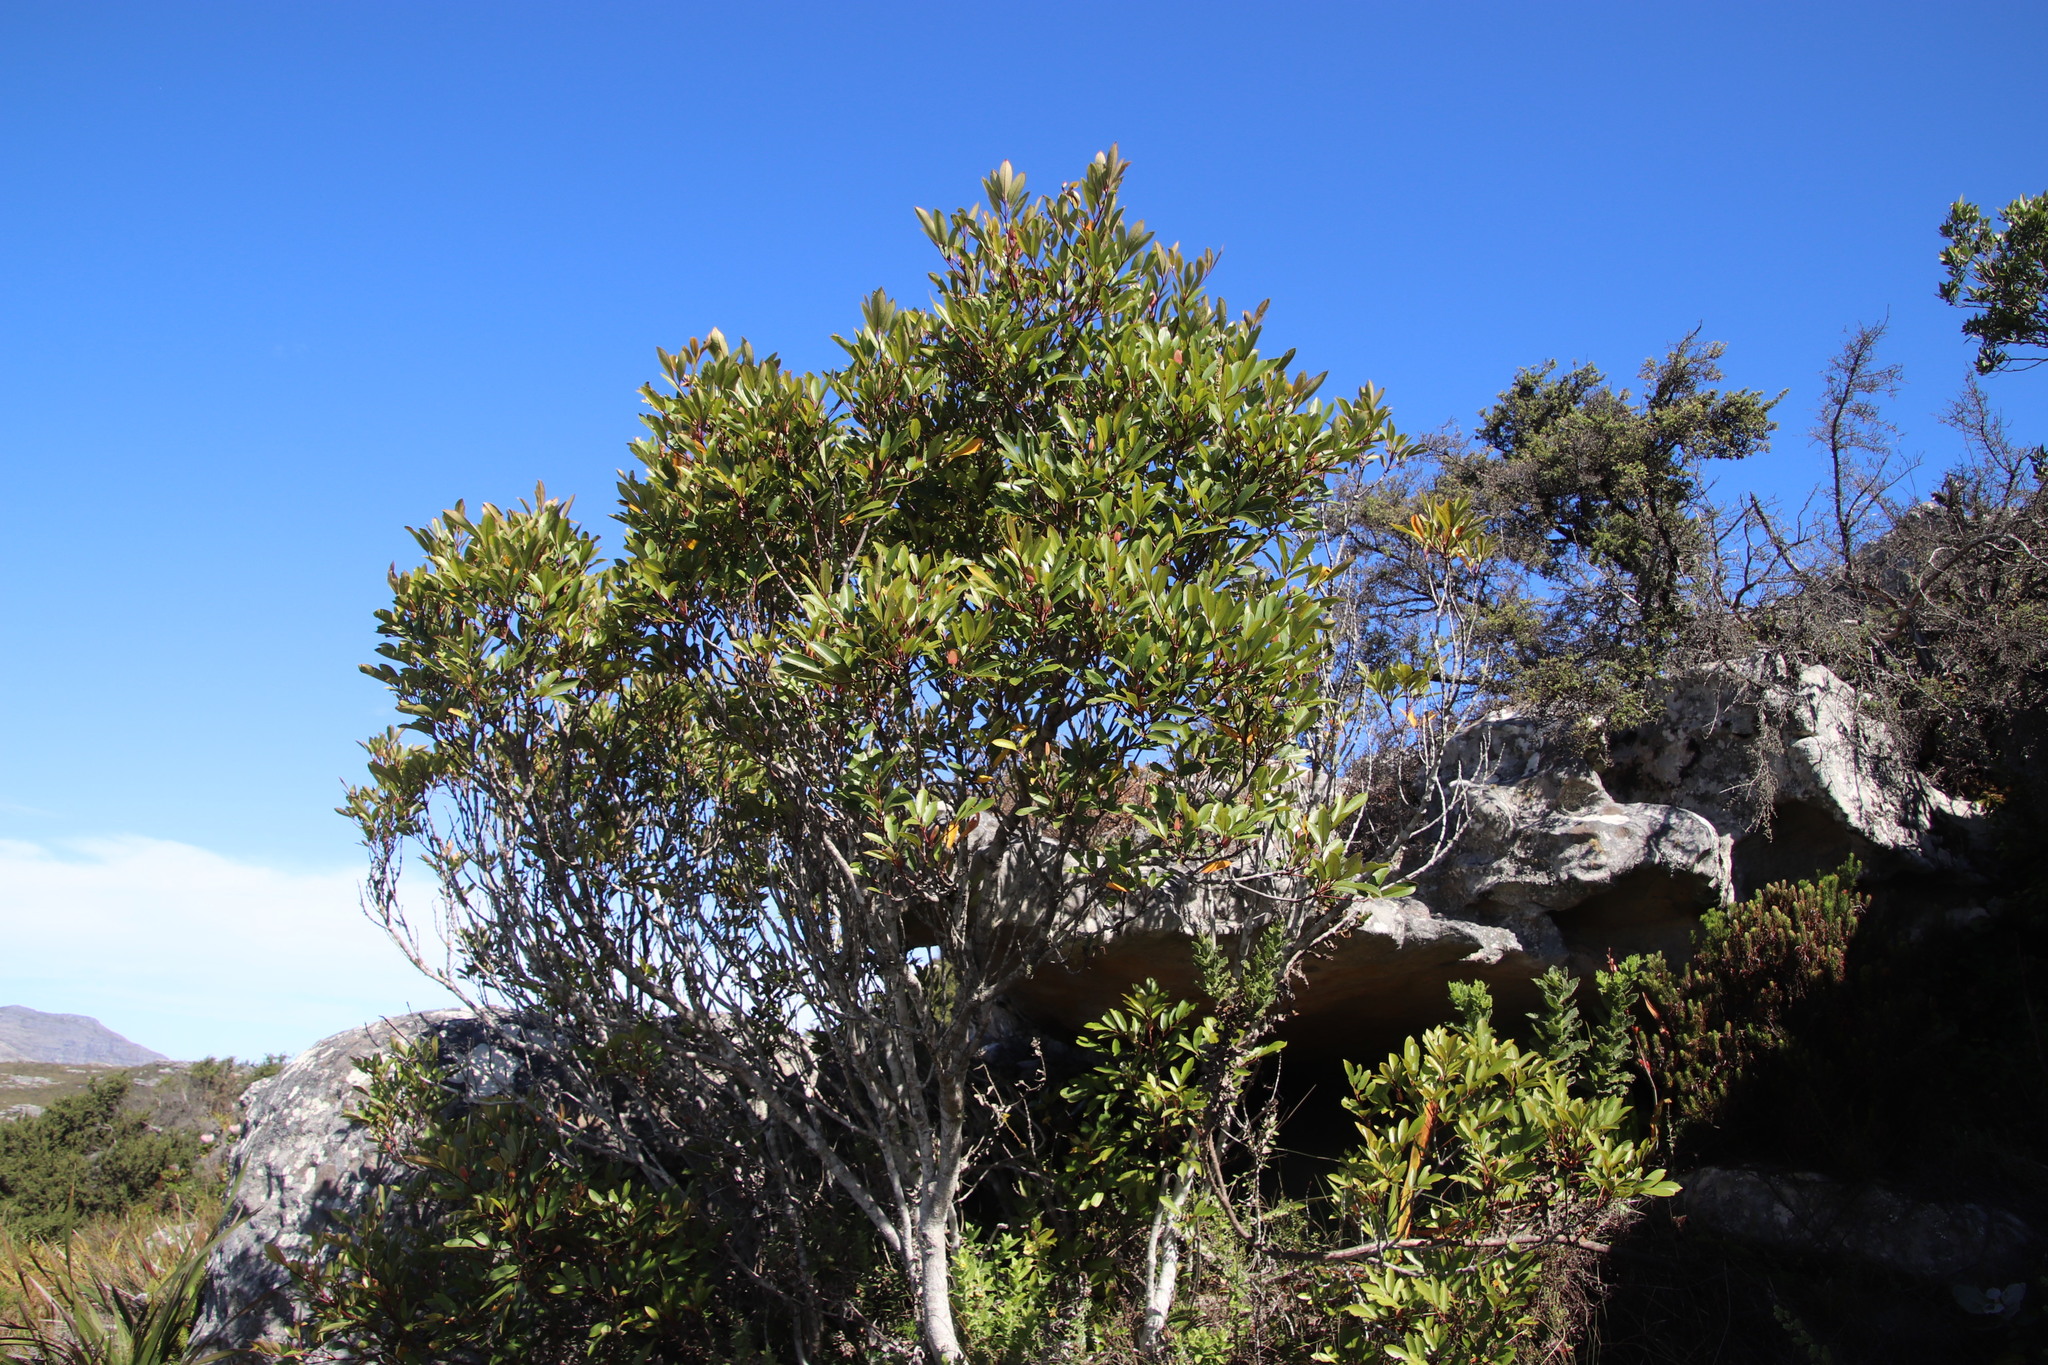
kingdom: Plantae
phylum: Tracheophyta
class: Magnoliopsida
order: Oxalidales
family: Cunoniaceae
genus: Cunonia
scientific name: Cunonia capensis
